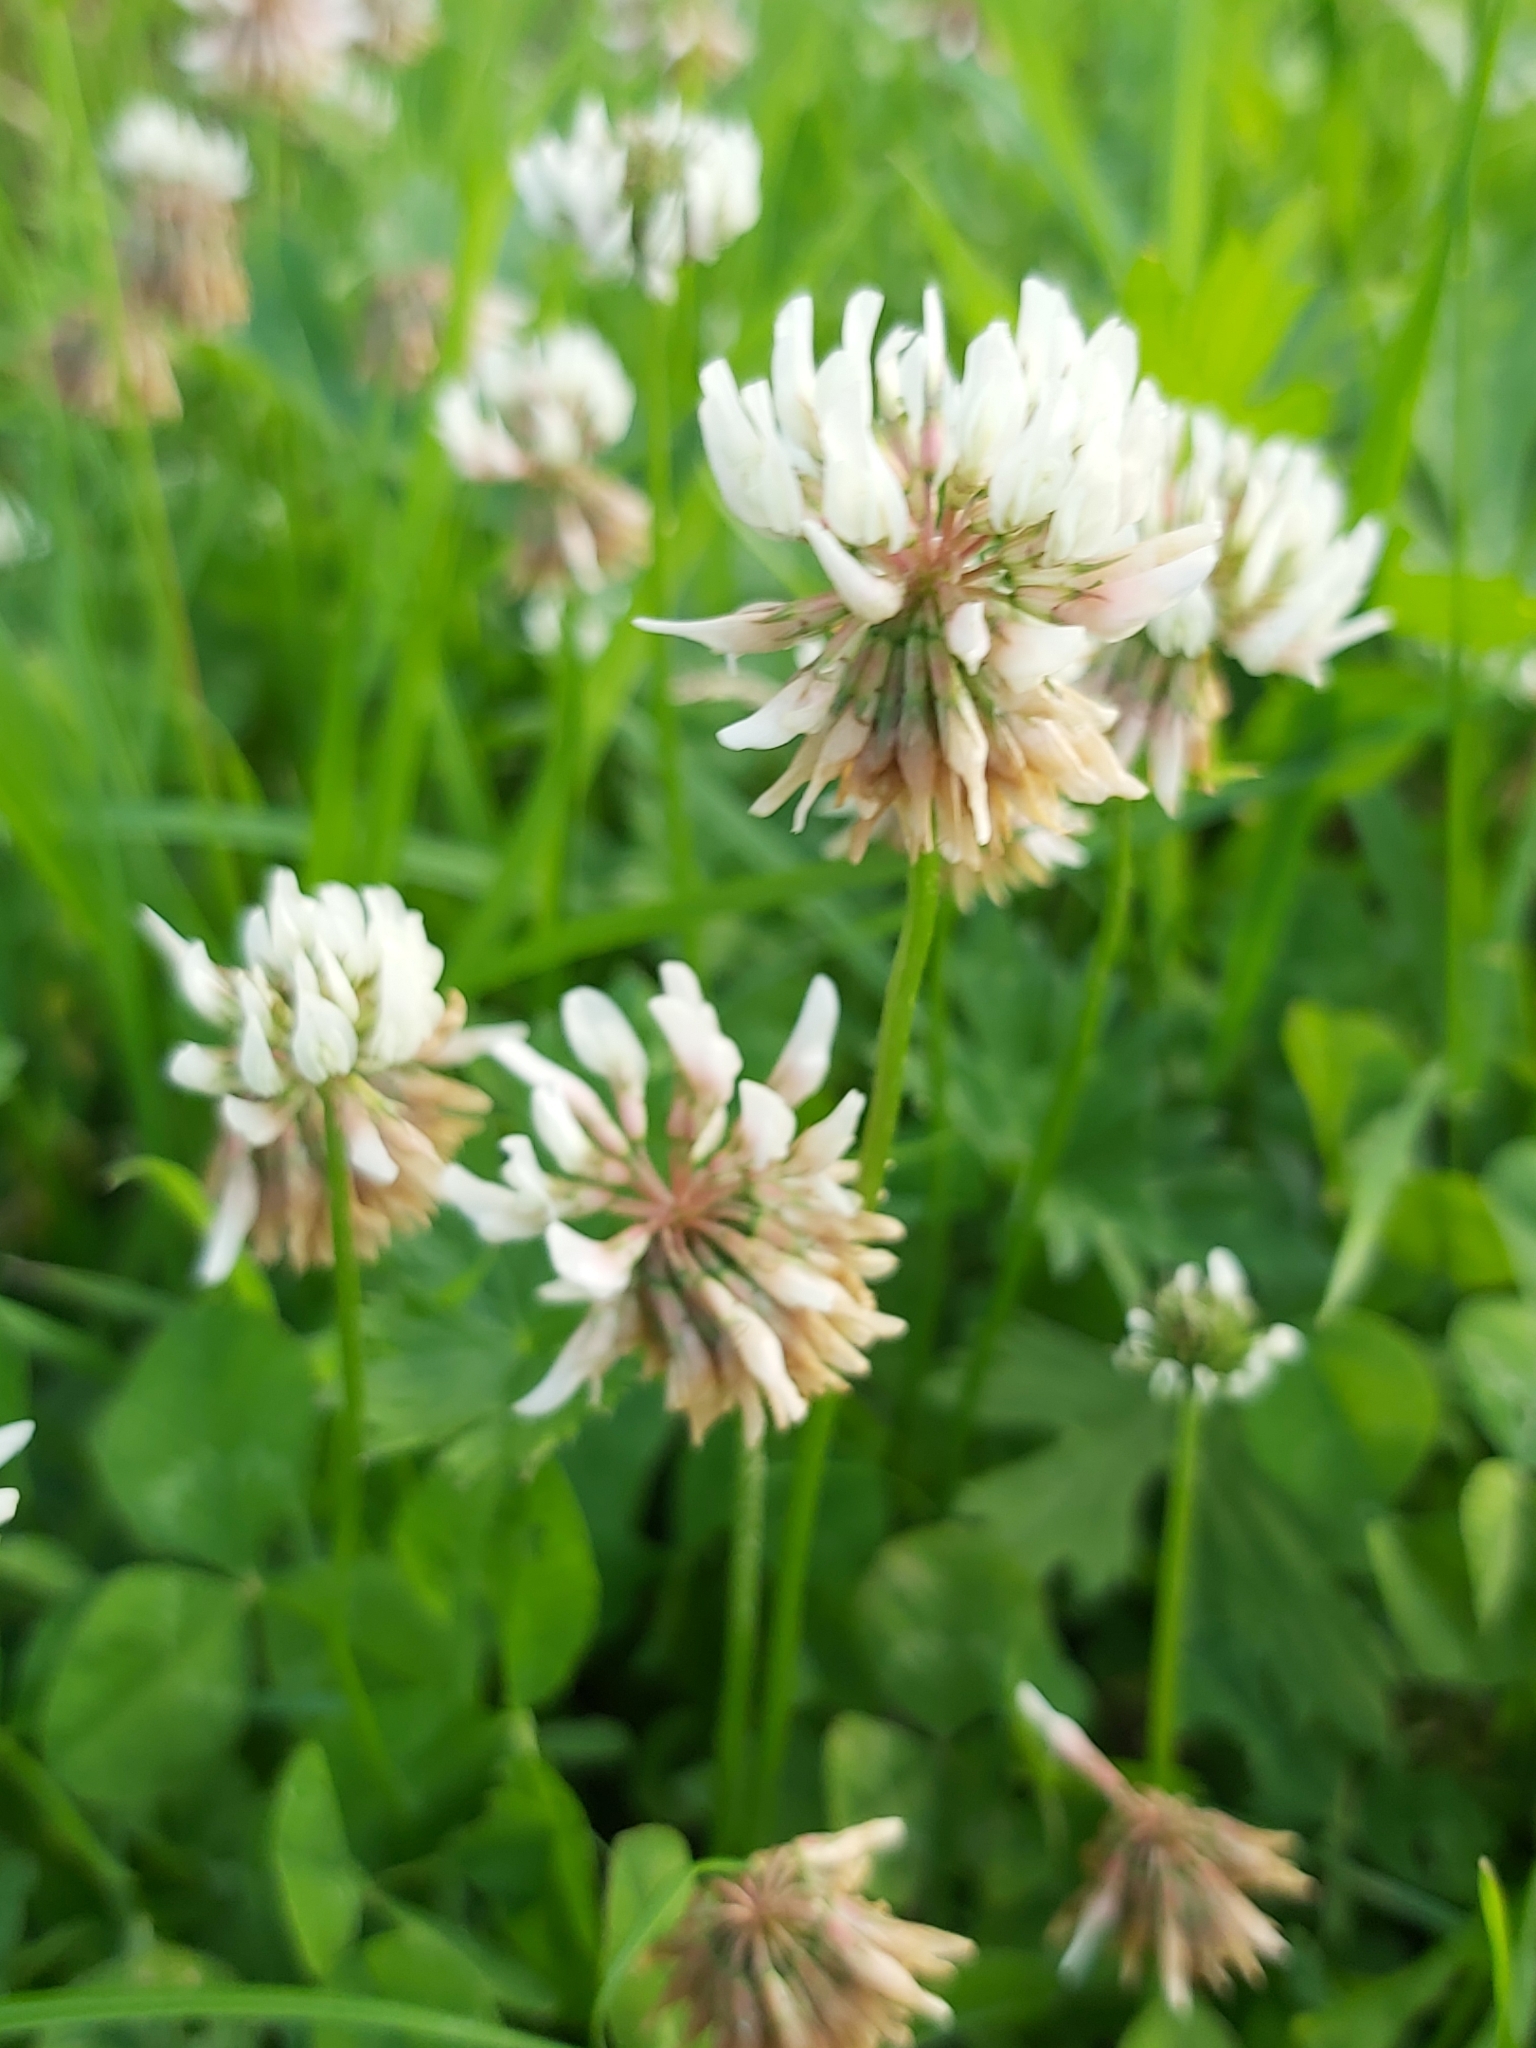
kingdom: Plantae
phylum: Tracheophyta
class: Magnoliopsida
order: Fabales
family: Fabaceae
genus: Trifolium
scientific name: Trifolium repens
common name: White clover
